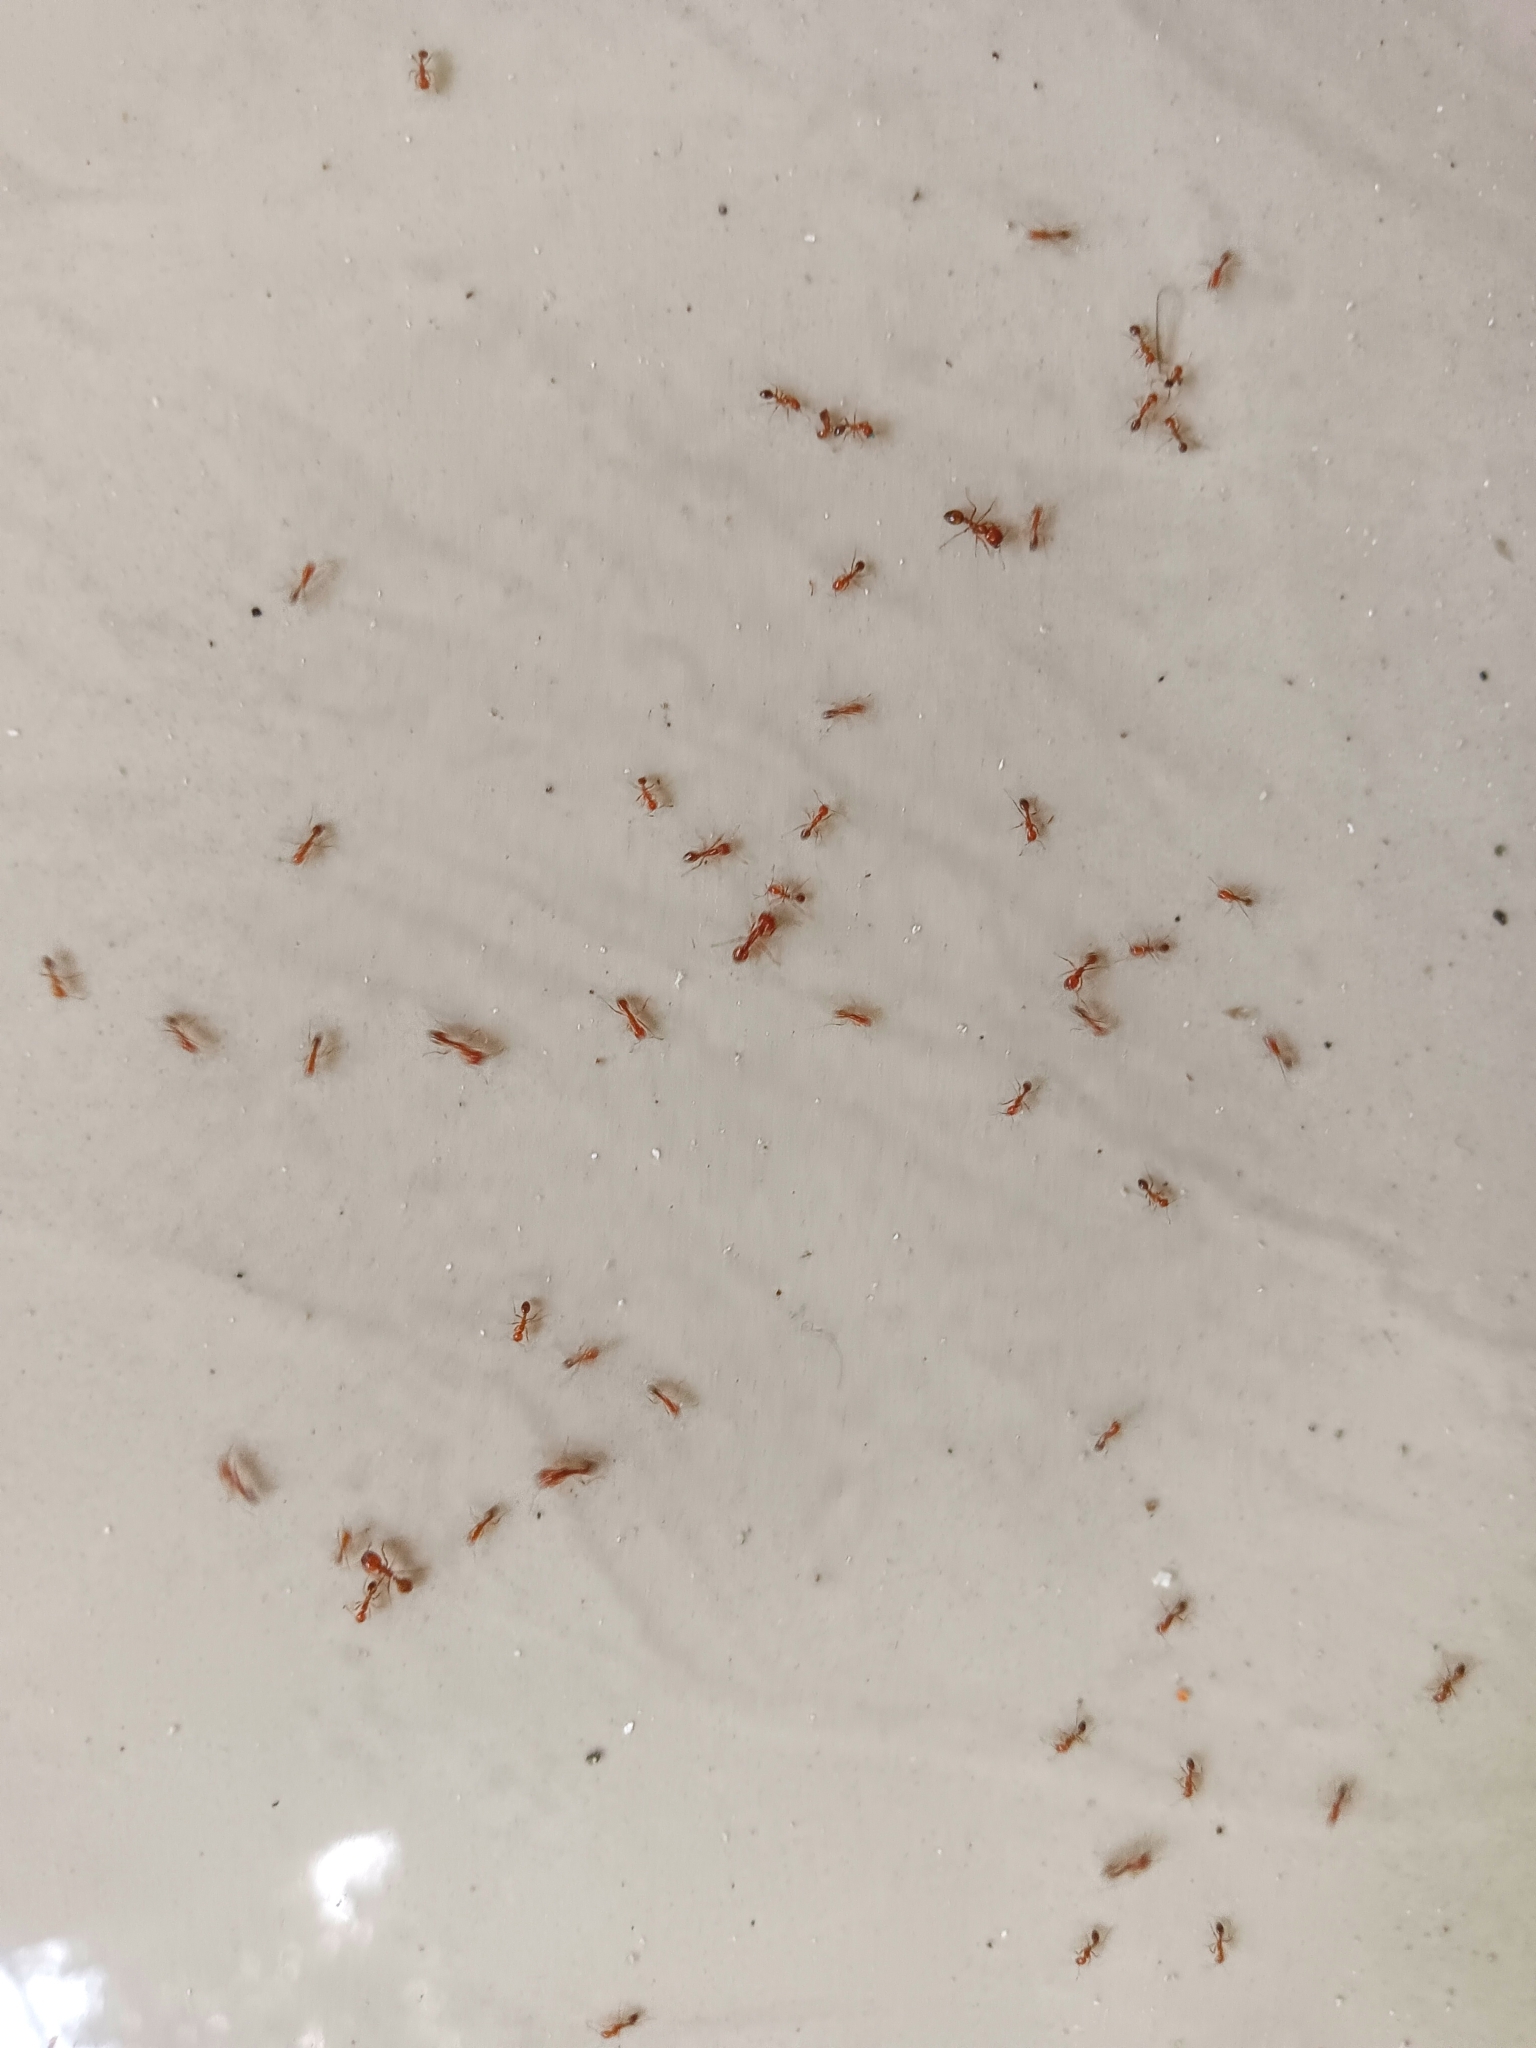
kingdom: Animalia
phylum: Arthropoda
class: Insecta
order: Hymenoptera
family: Formicidae
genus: Solenopsis
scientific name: Solenopsis geminata
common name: Tropical fire ant
